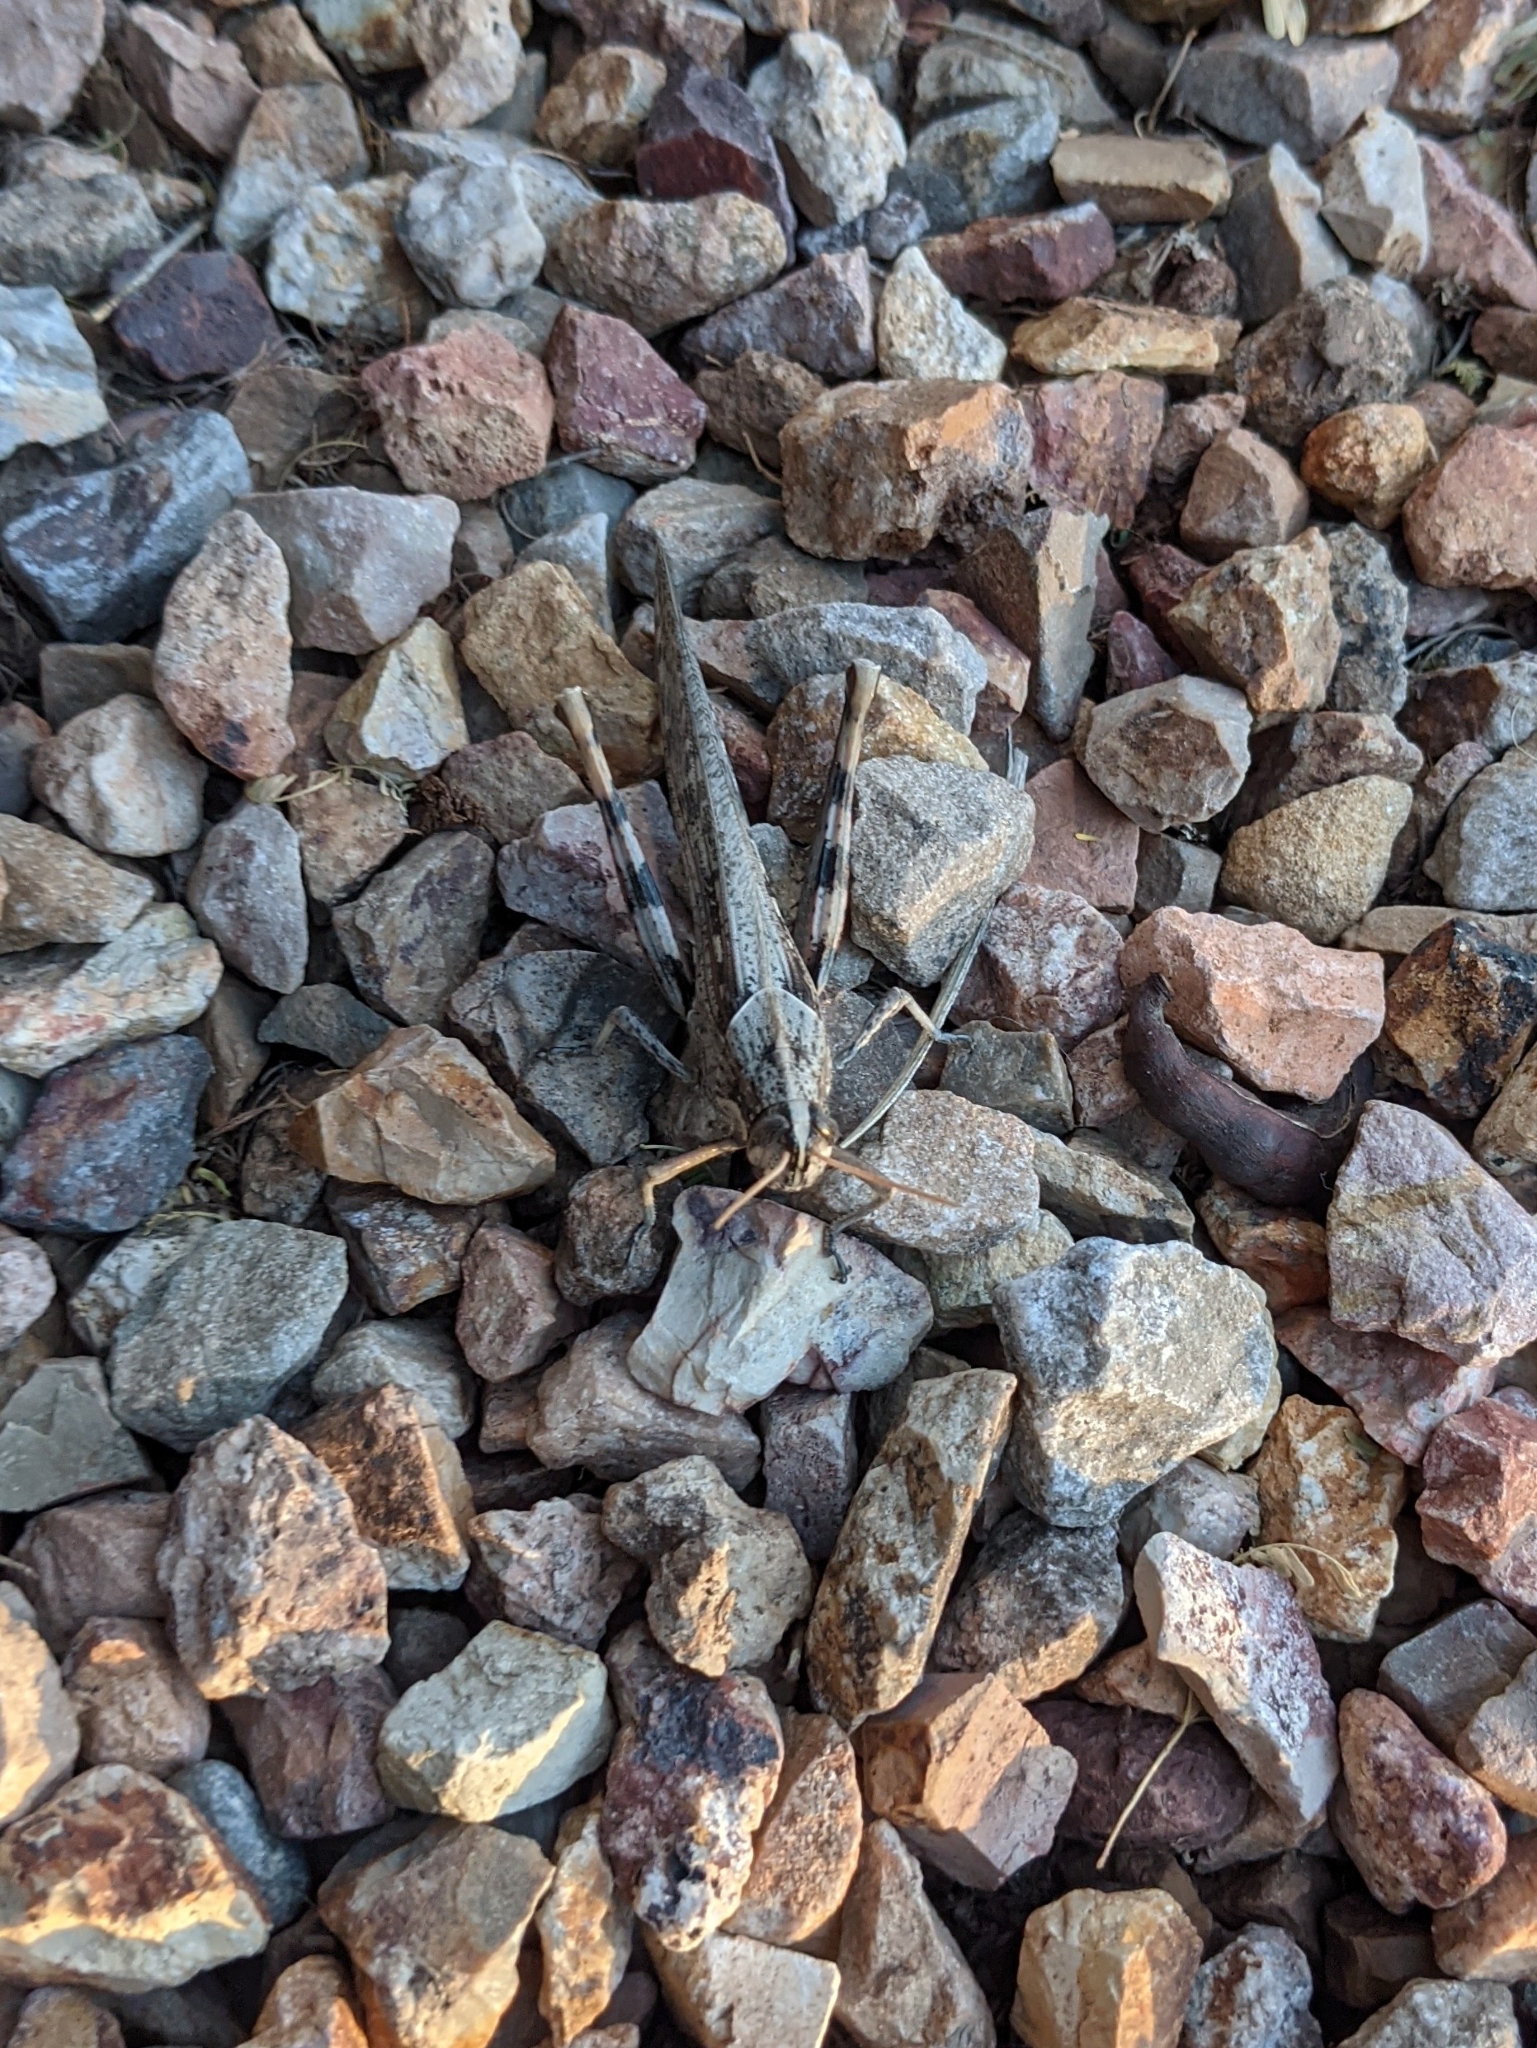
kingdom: Animalia
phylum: Arthropoda
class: Insecta
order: Orthoptera
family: Acrididae
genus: Schistocerca
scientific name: Schistocerca nitens
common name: Vagrant grasshopper
